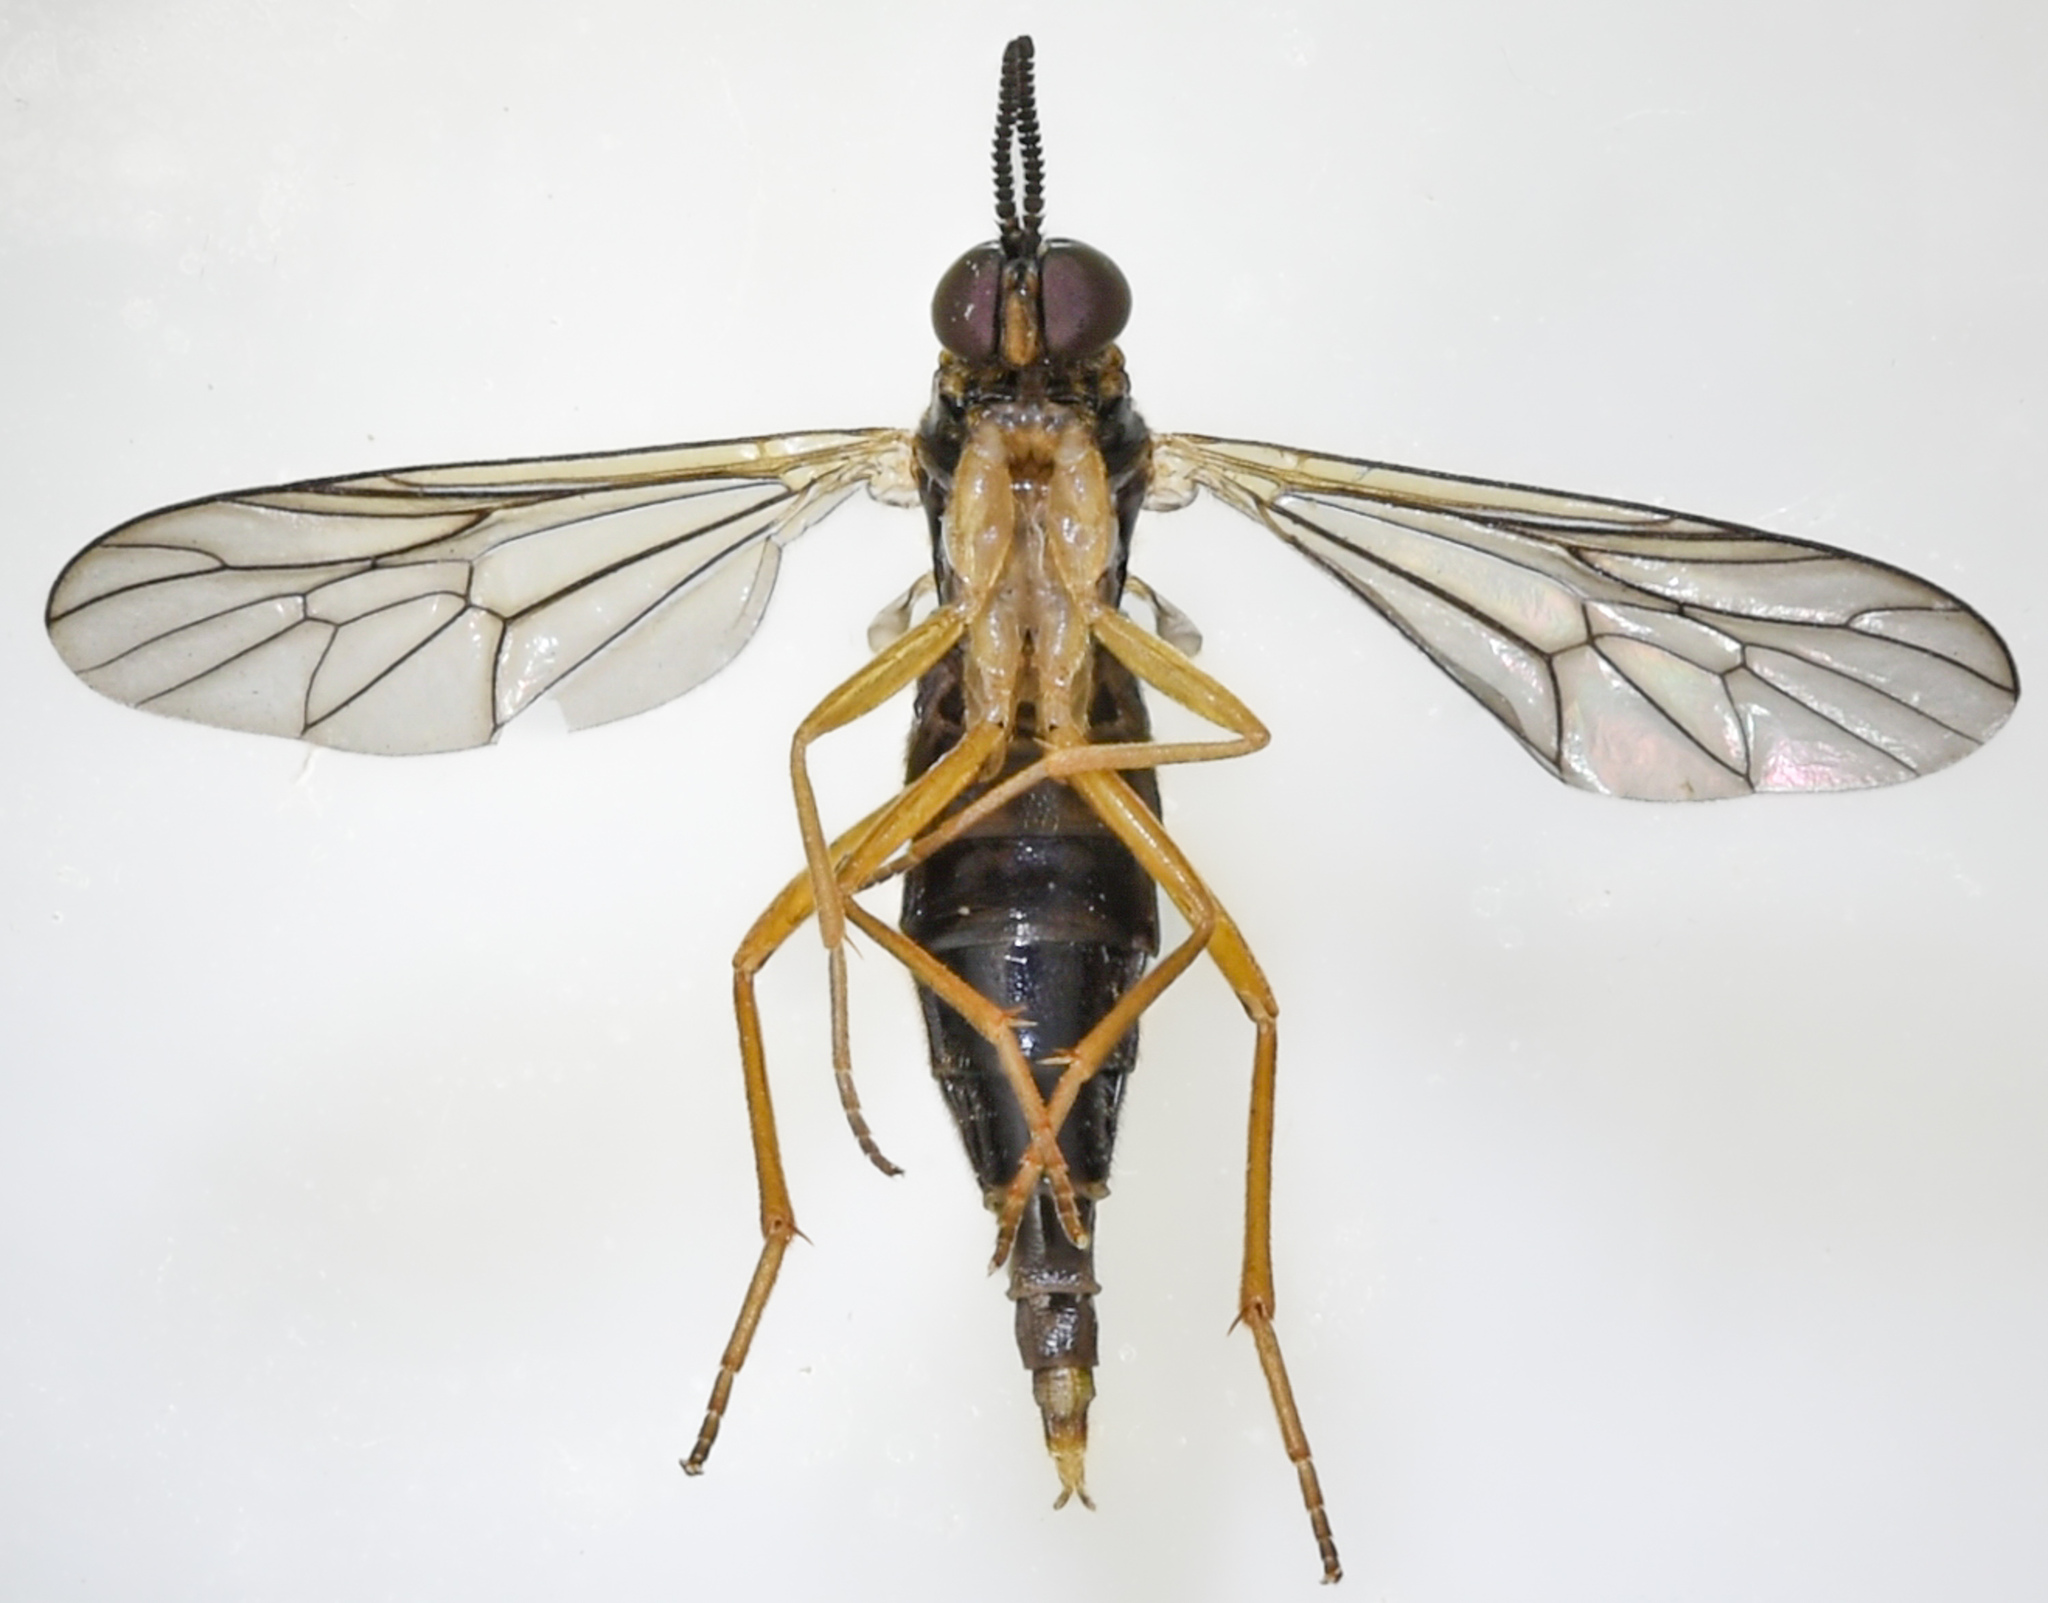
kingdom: Animalia
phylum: Arthropoda
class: Insecta
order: Diptera
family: Xylophagidae
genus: Rachicerus
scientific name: Rachicerus honestus
